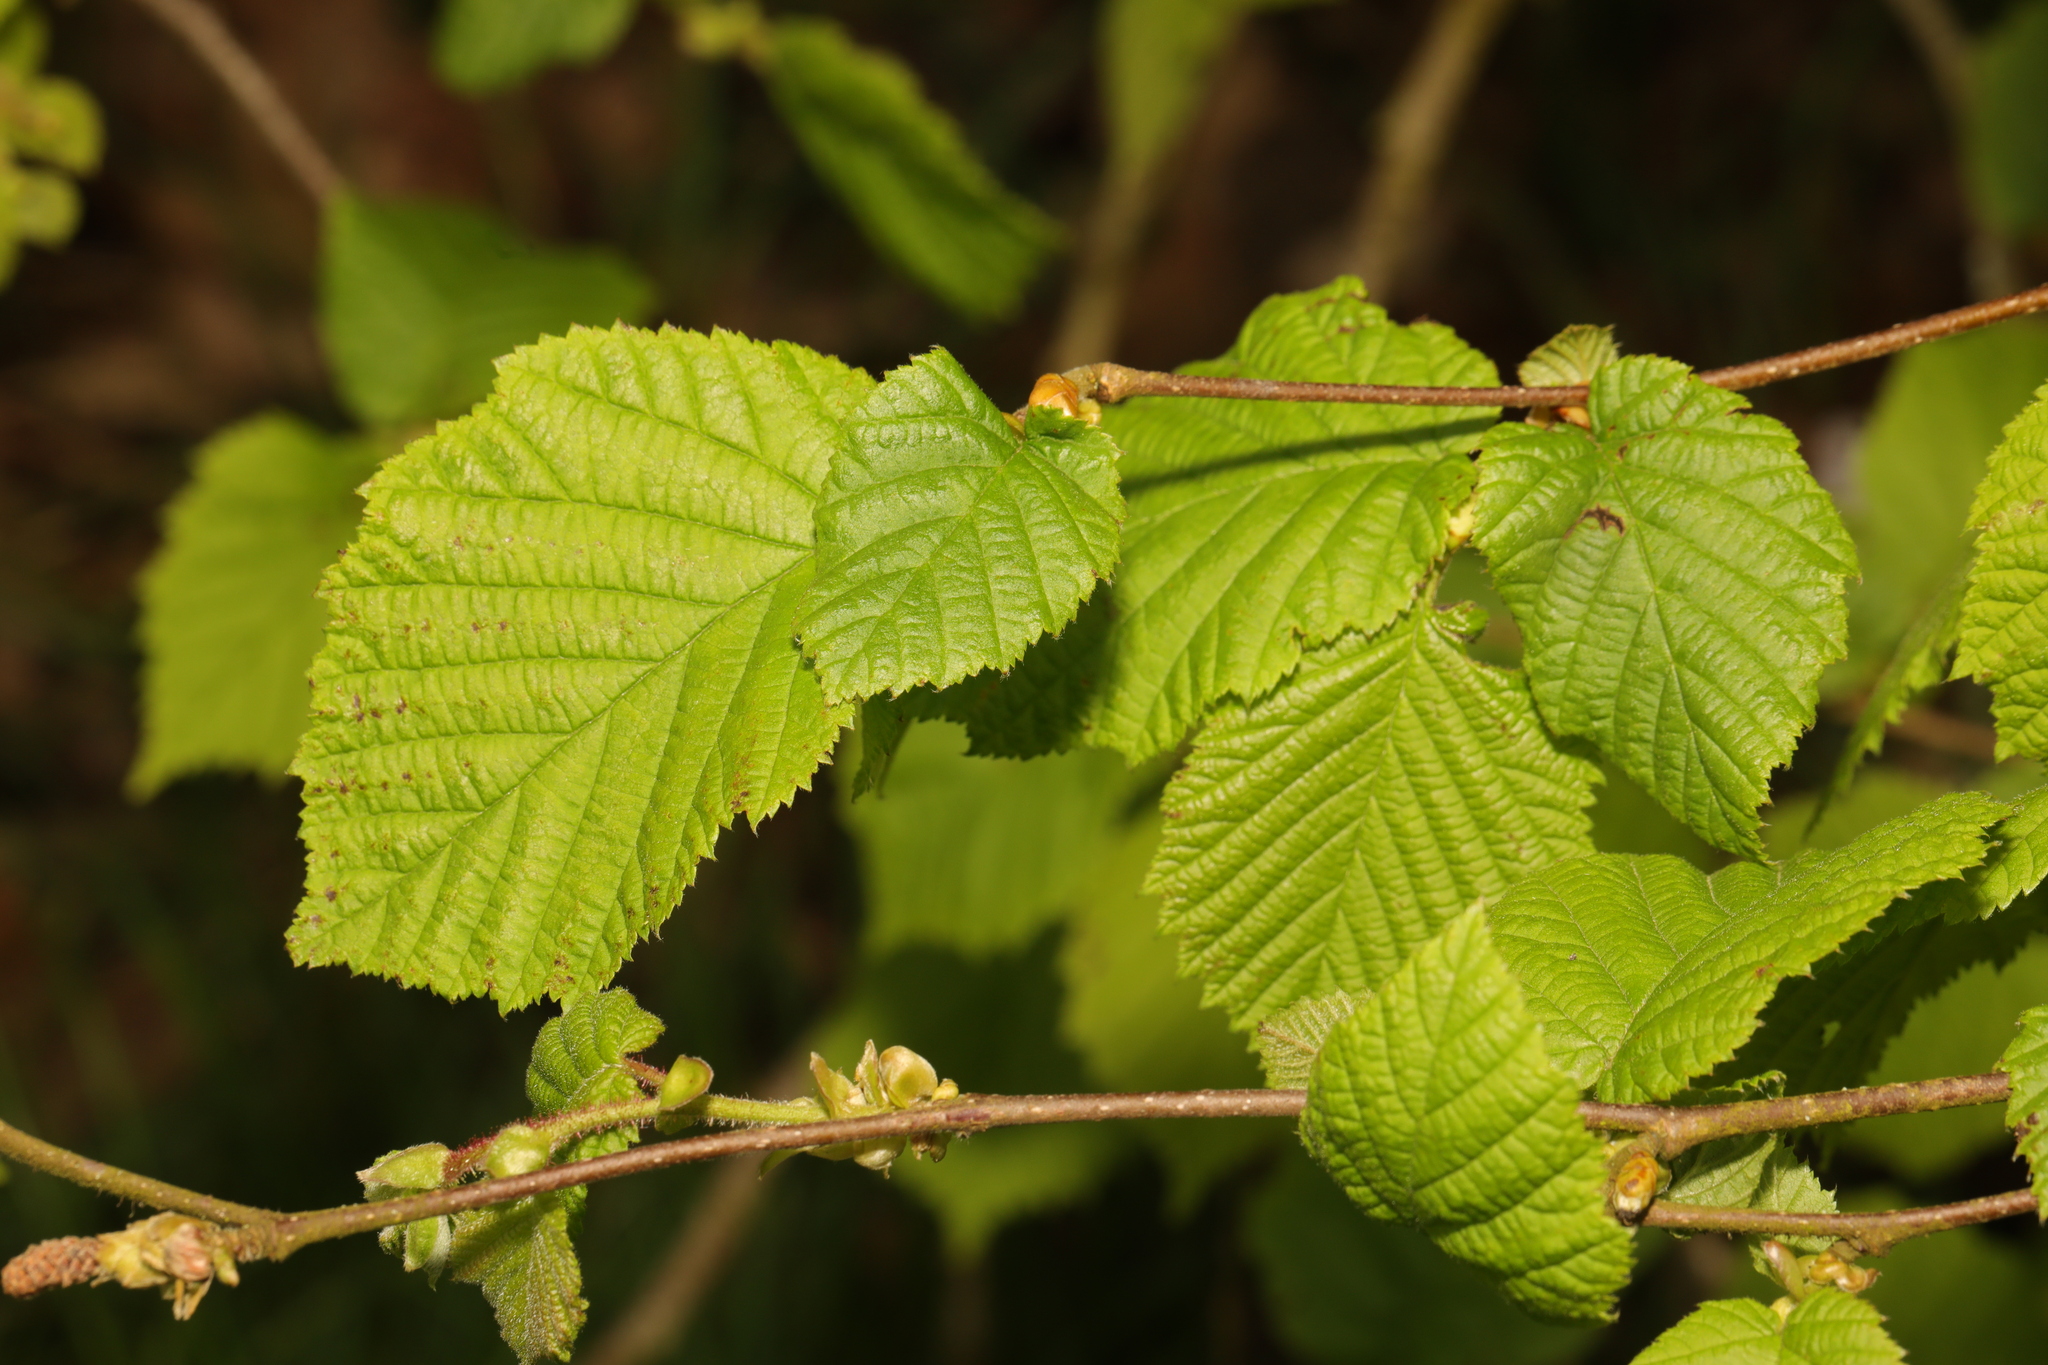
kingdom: Plantae
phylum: Tracheophyta
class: Magnoliopsida
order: Fagales
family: Betulaceae
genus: Corylus
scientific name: Corylus avellana
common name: European hazel
